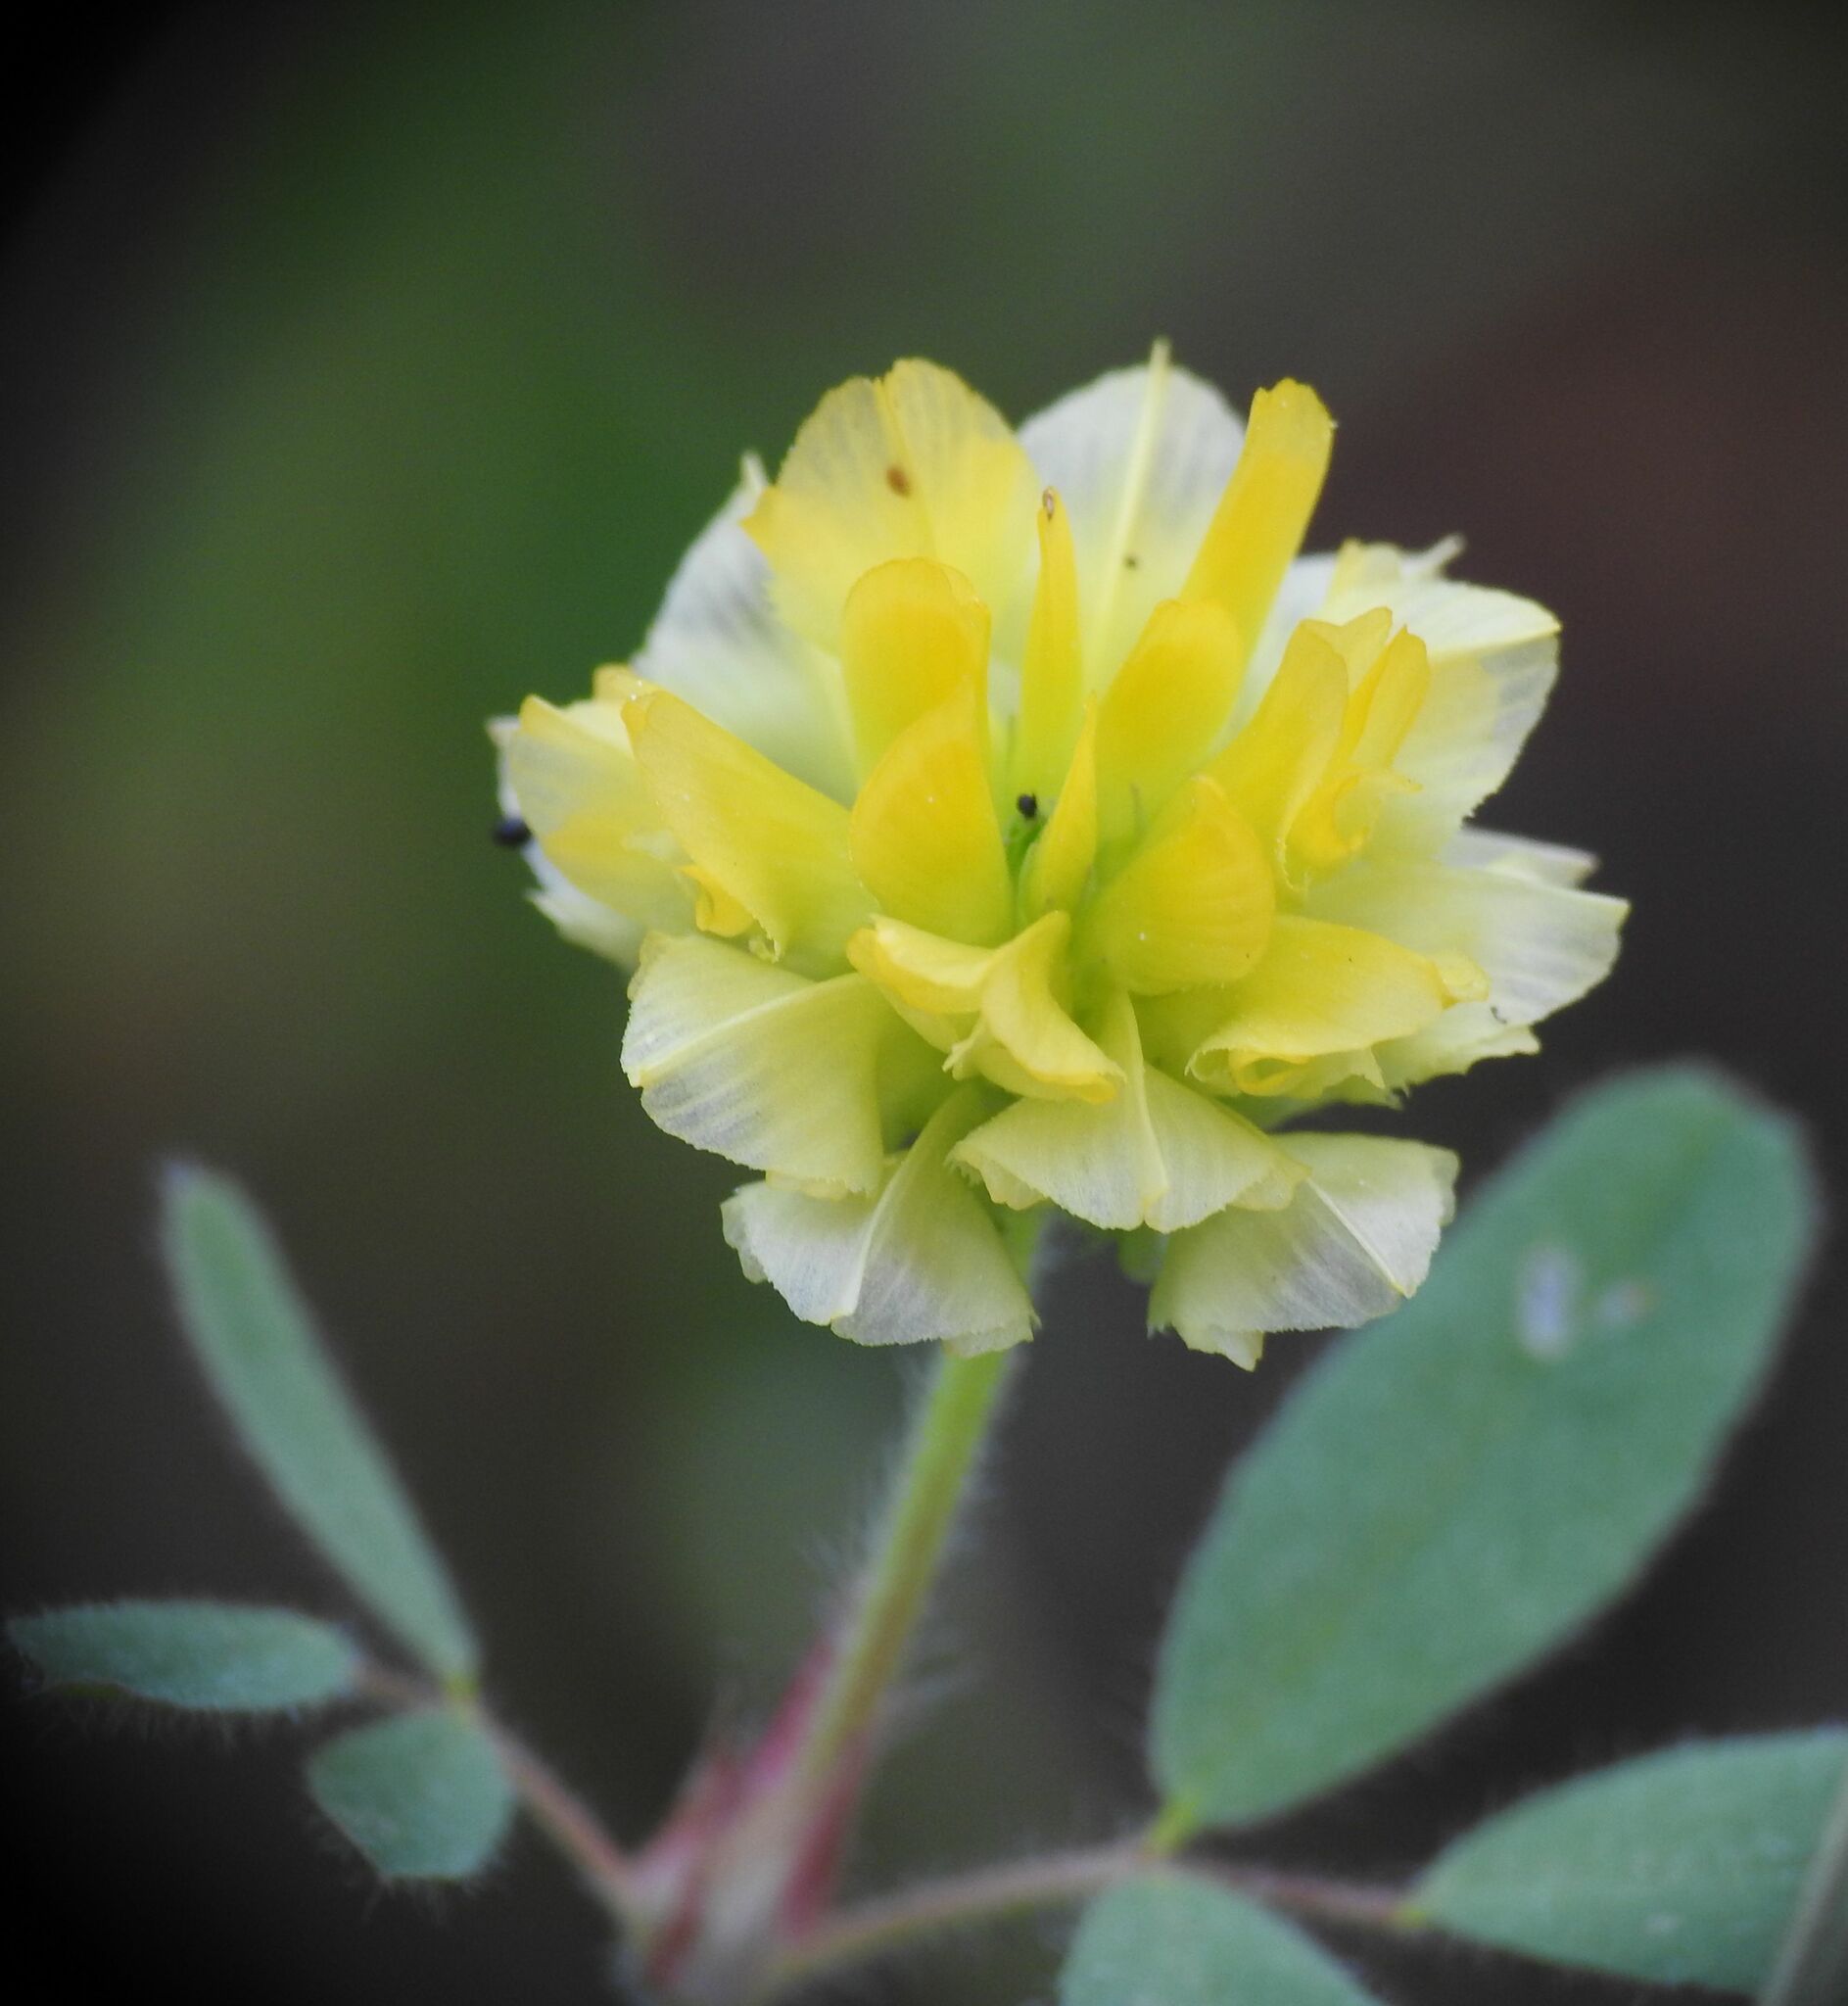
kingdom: Plantae
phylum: Tracheophyta
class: Magnoliopsida
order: Fabales
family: Fabaceae
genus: Trifolium
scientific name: Trifolium boissieri
